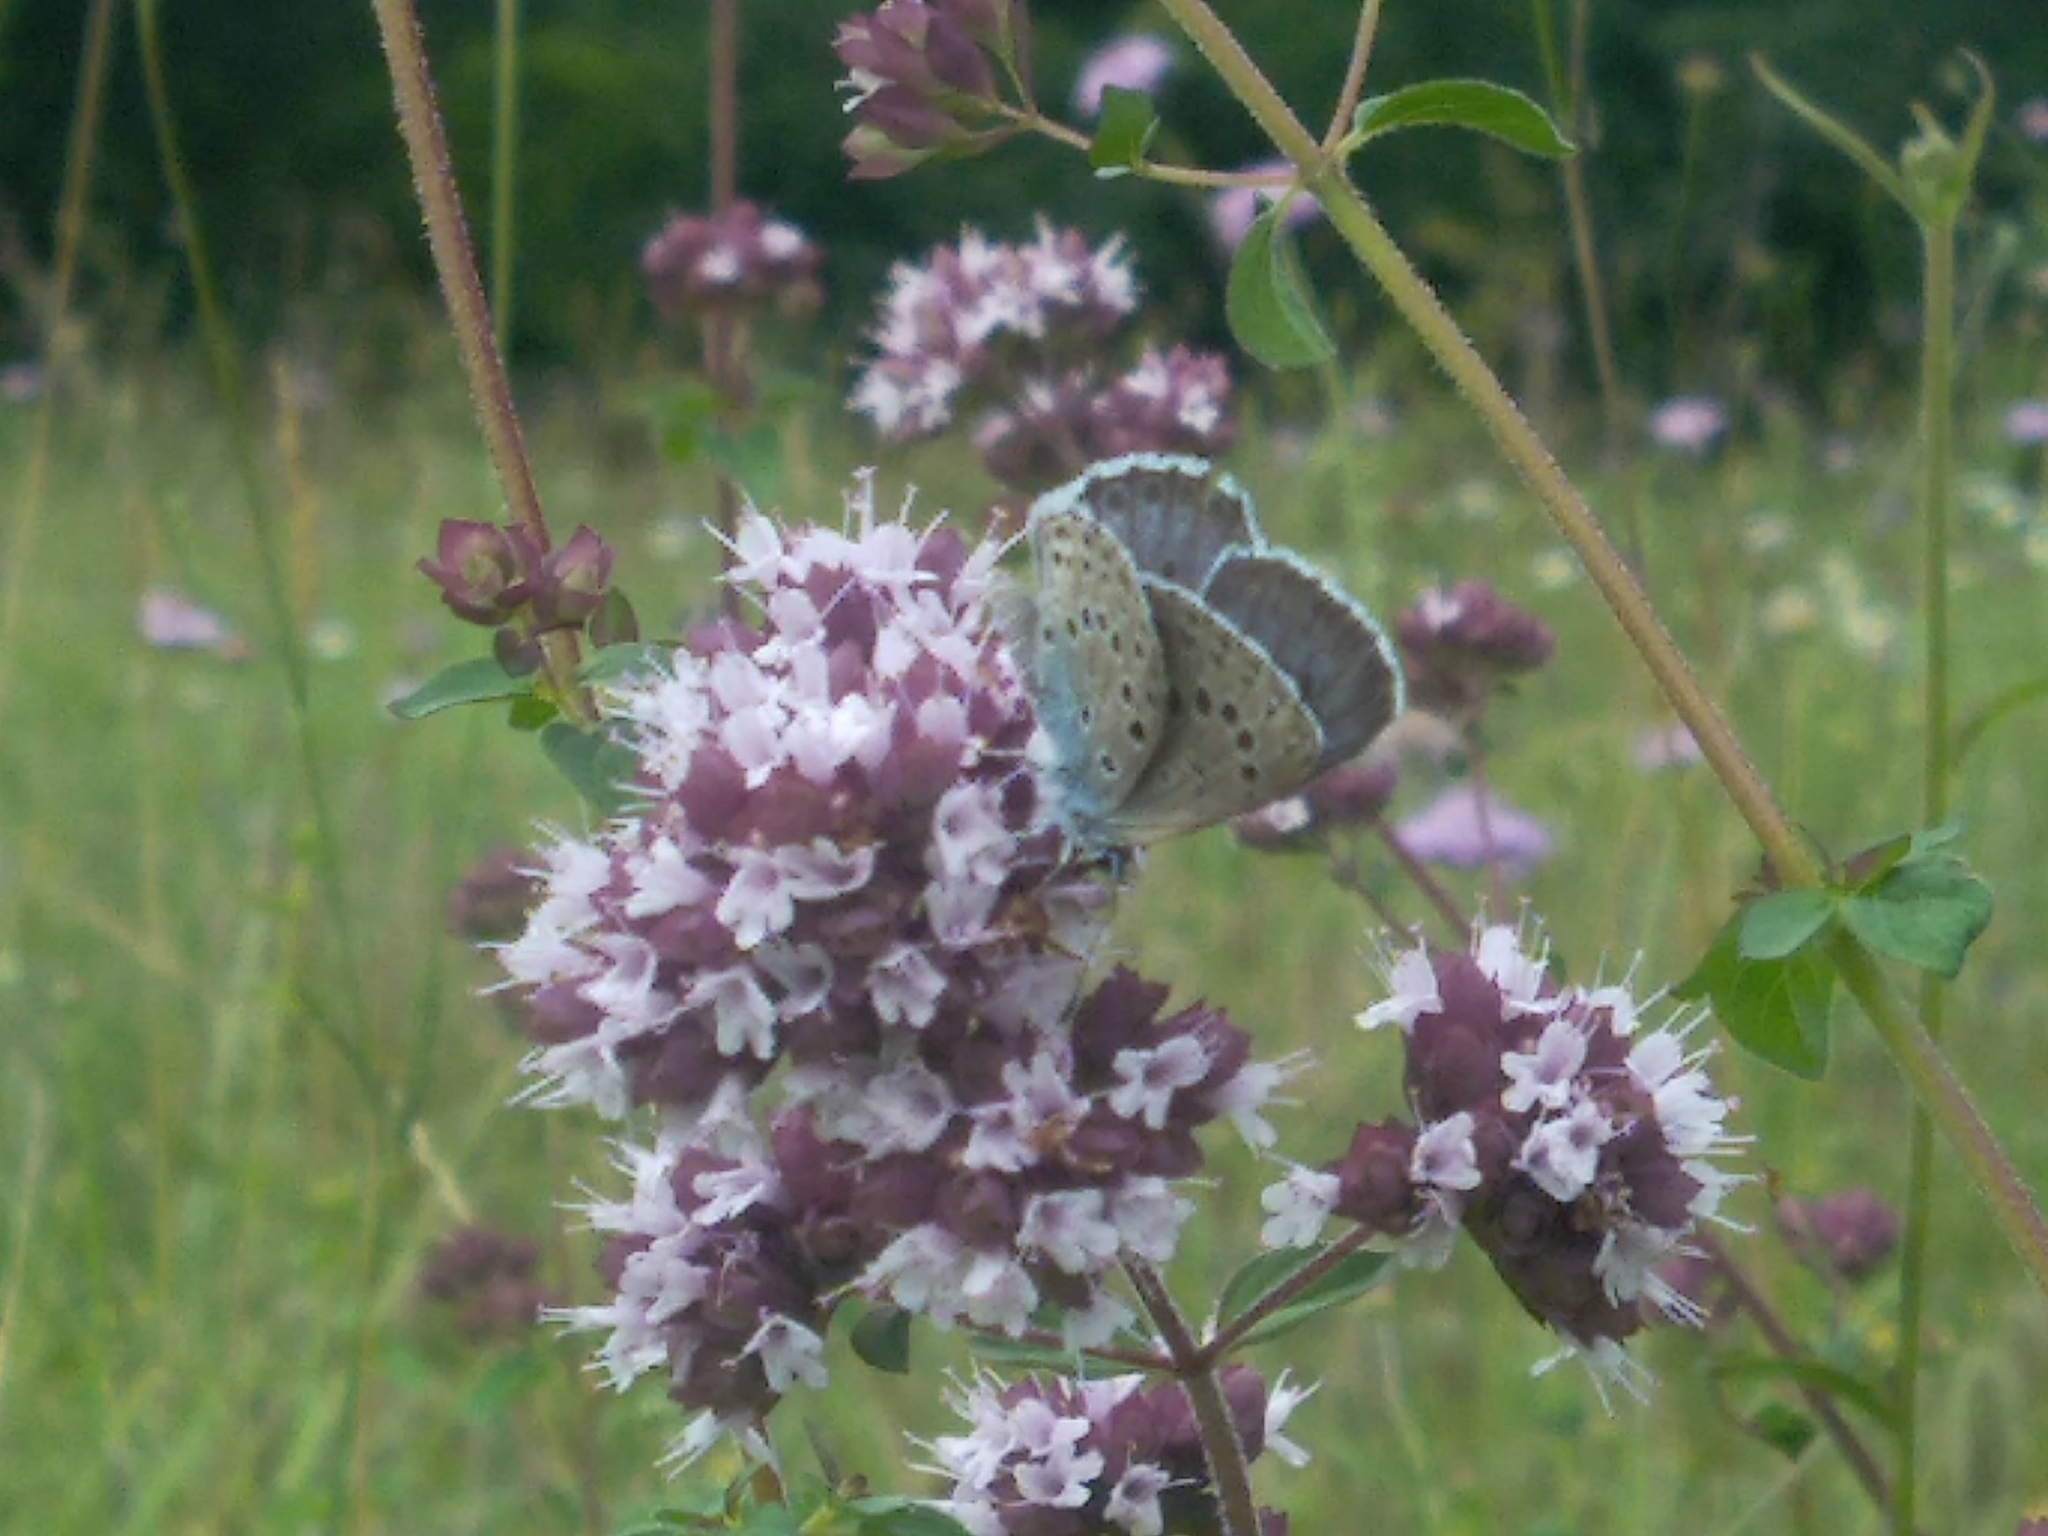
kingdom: Animalia
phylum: Arthropoda
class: Insecta
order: Lepidoptera
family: Lycaenidae
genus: Maculinea
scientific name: Maculinea arion
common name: Large blue
